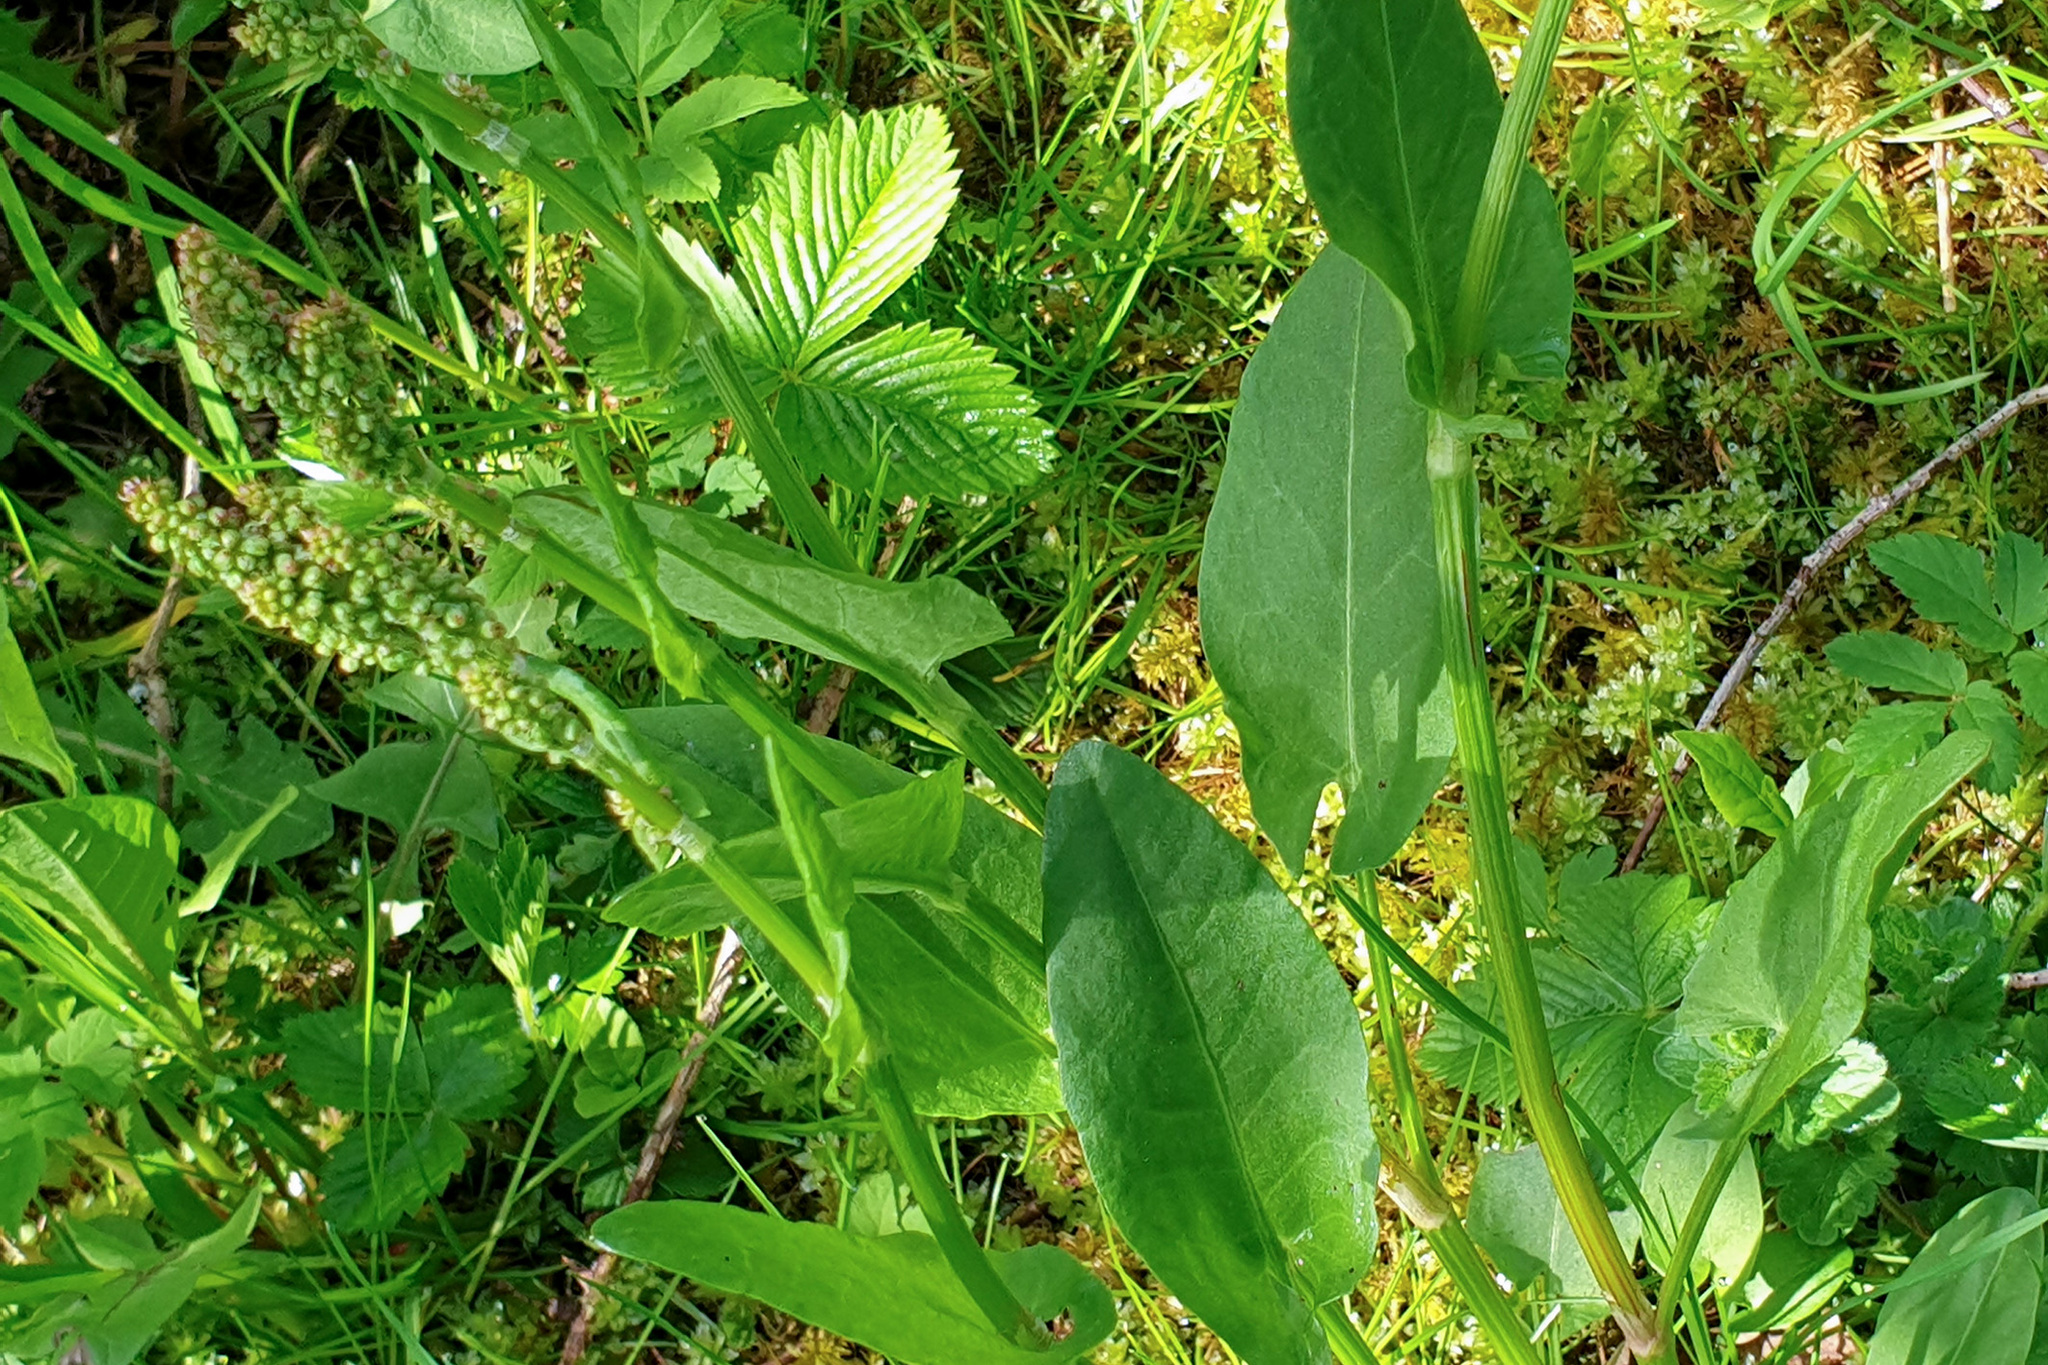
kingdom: Plantae
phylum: Tracheophyta
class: Magnoliopsida
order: Caryophyllales
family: Polygonaceae
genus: Rumex
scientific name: Rumex acetosa
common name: Garden sorrel
